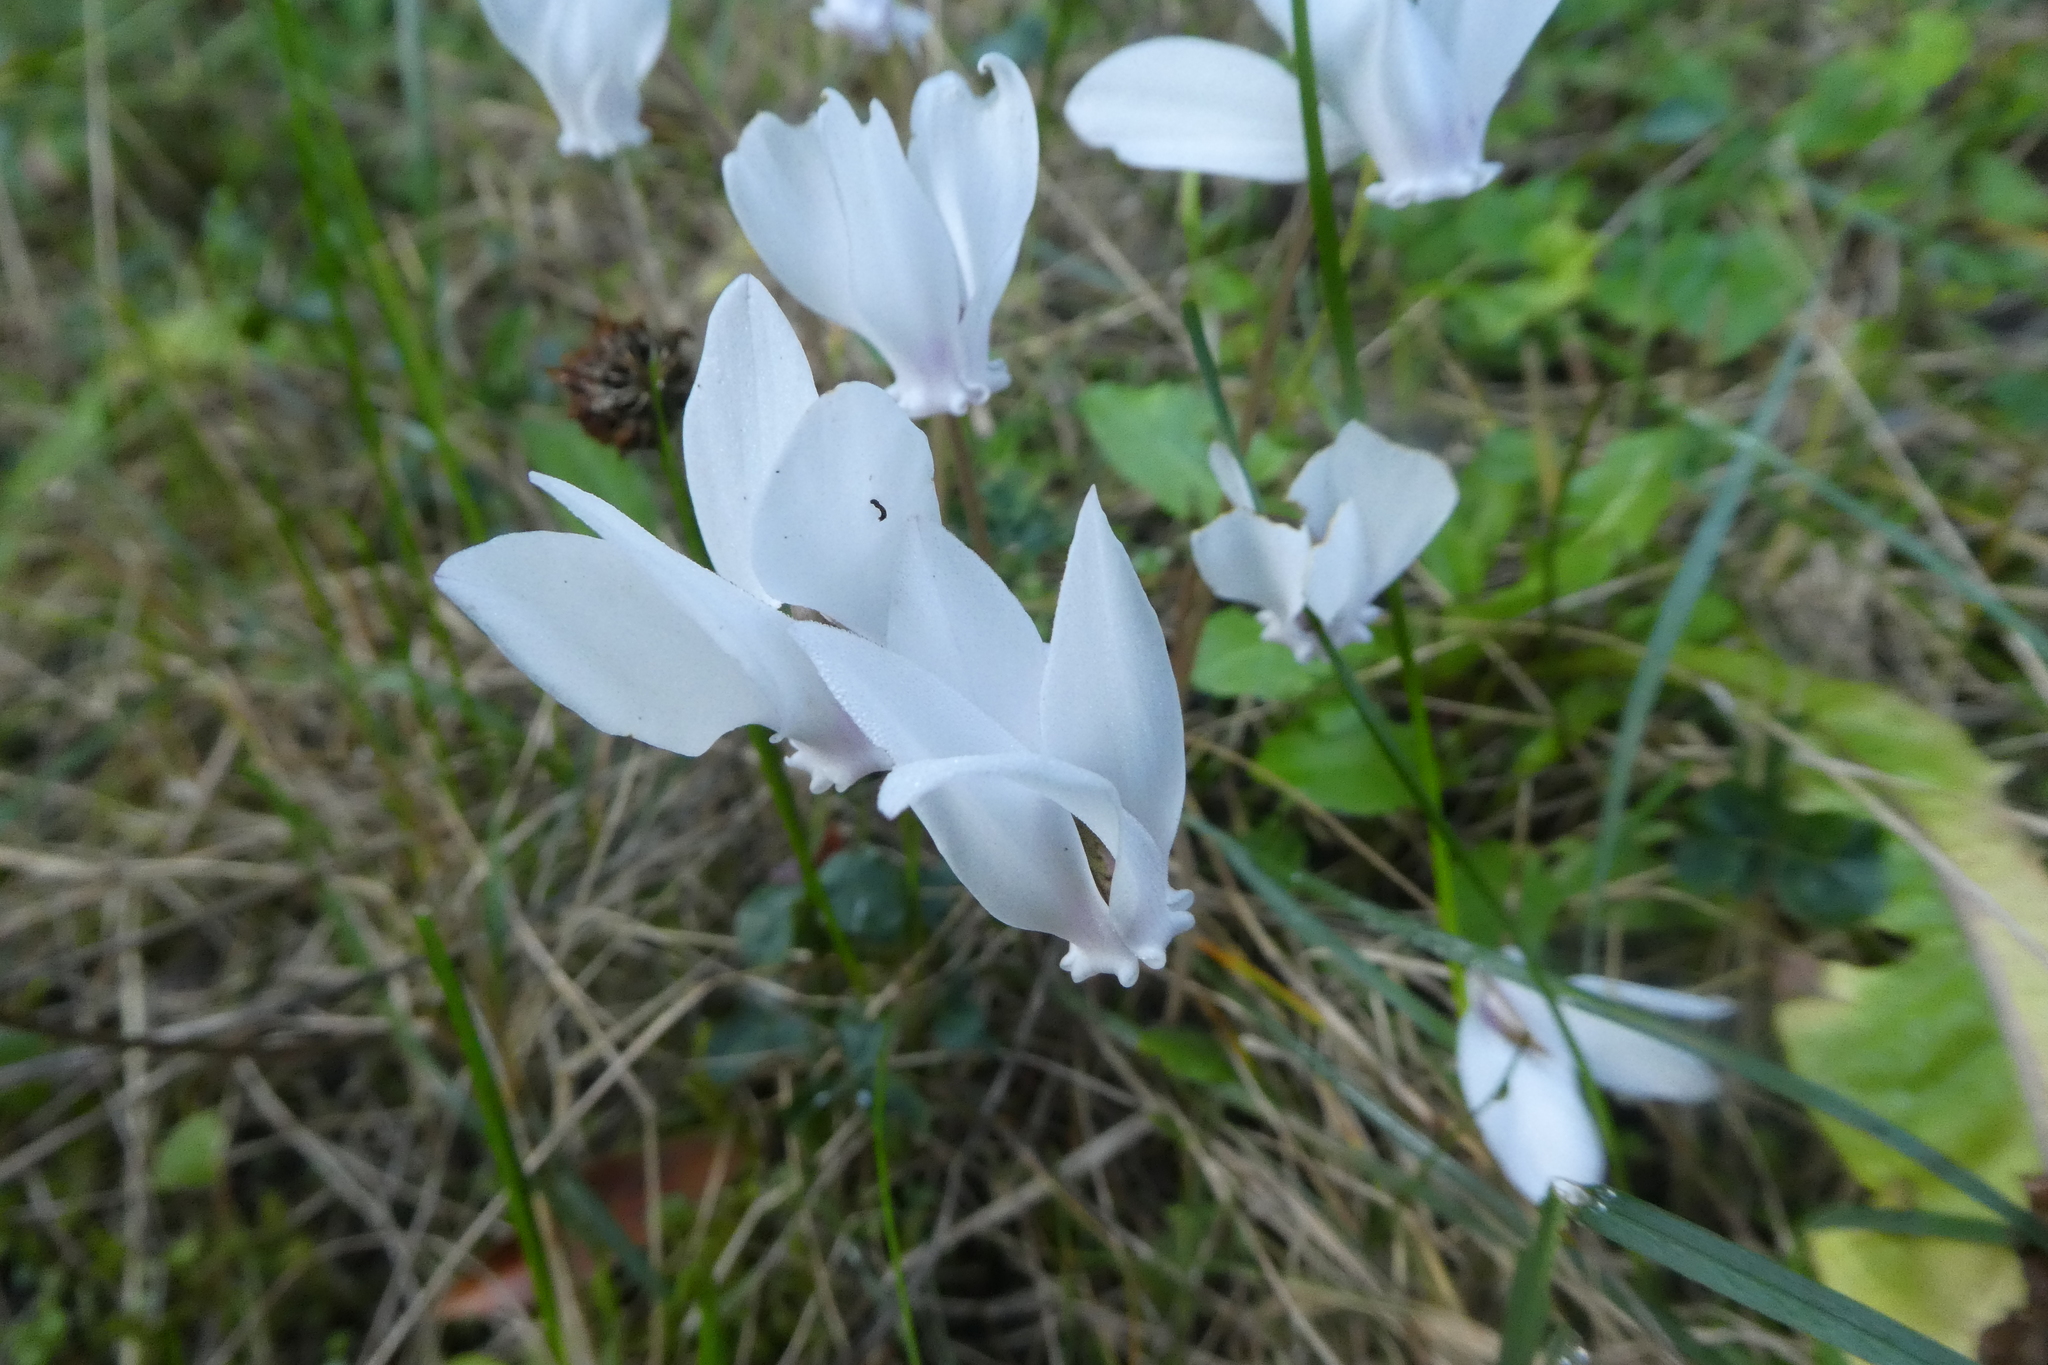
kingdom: Plantae
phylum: Tracheophyta
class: Magnoliopsida
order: Ericales
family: Primulaceae
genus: Cyclamen
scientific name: Cyclamen hederifolium
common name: Sowbread
